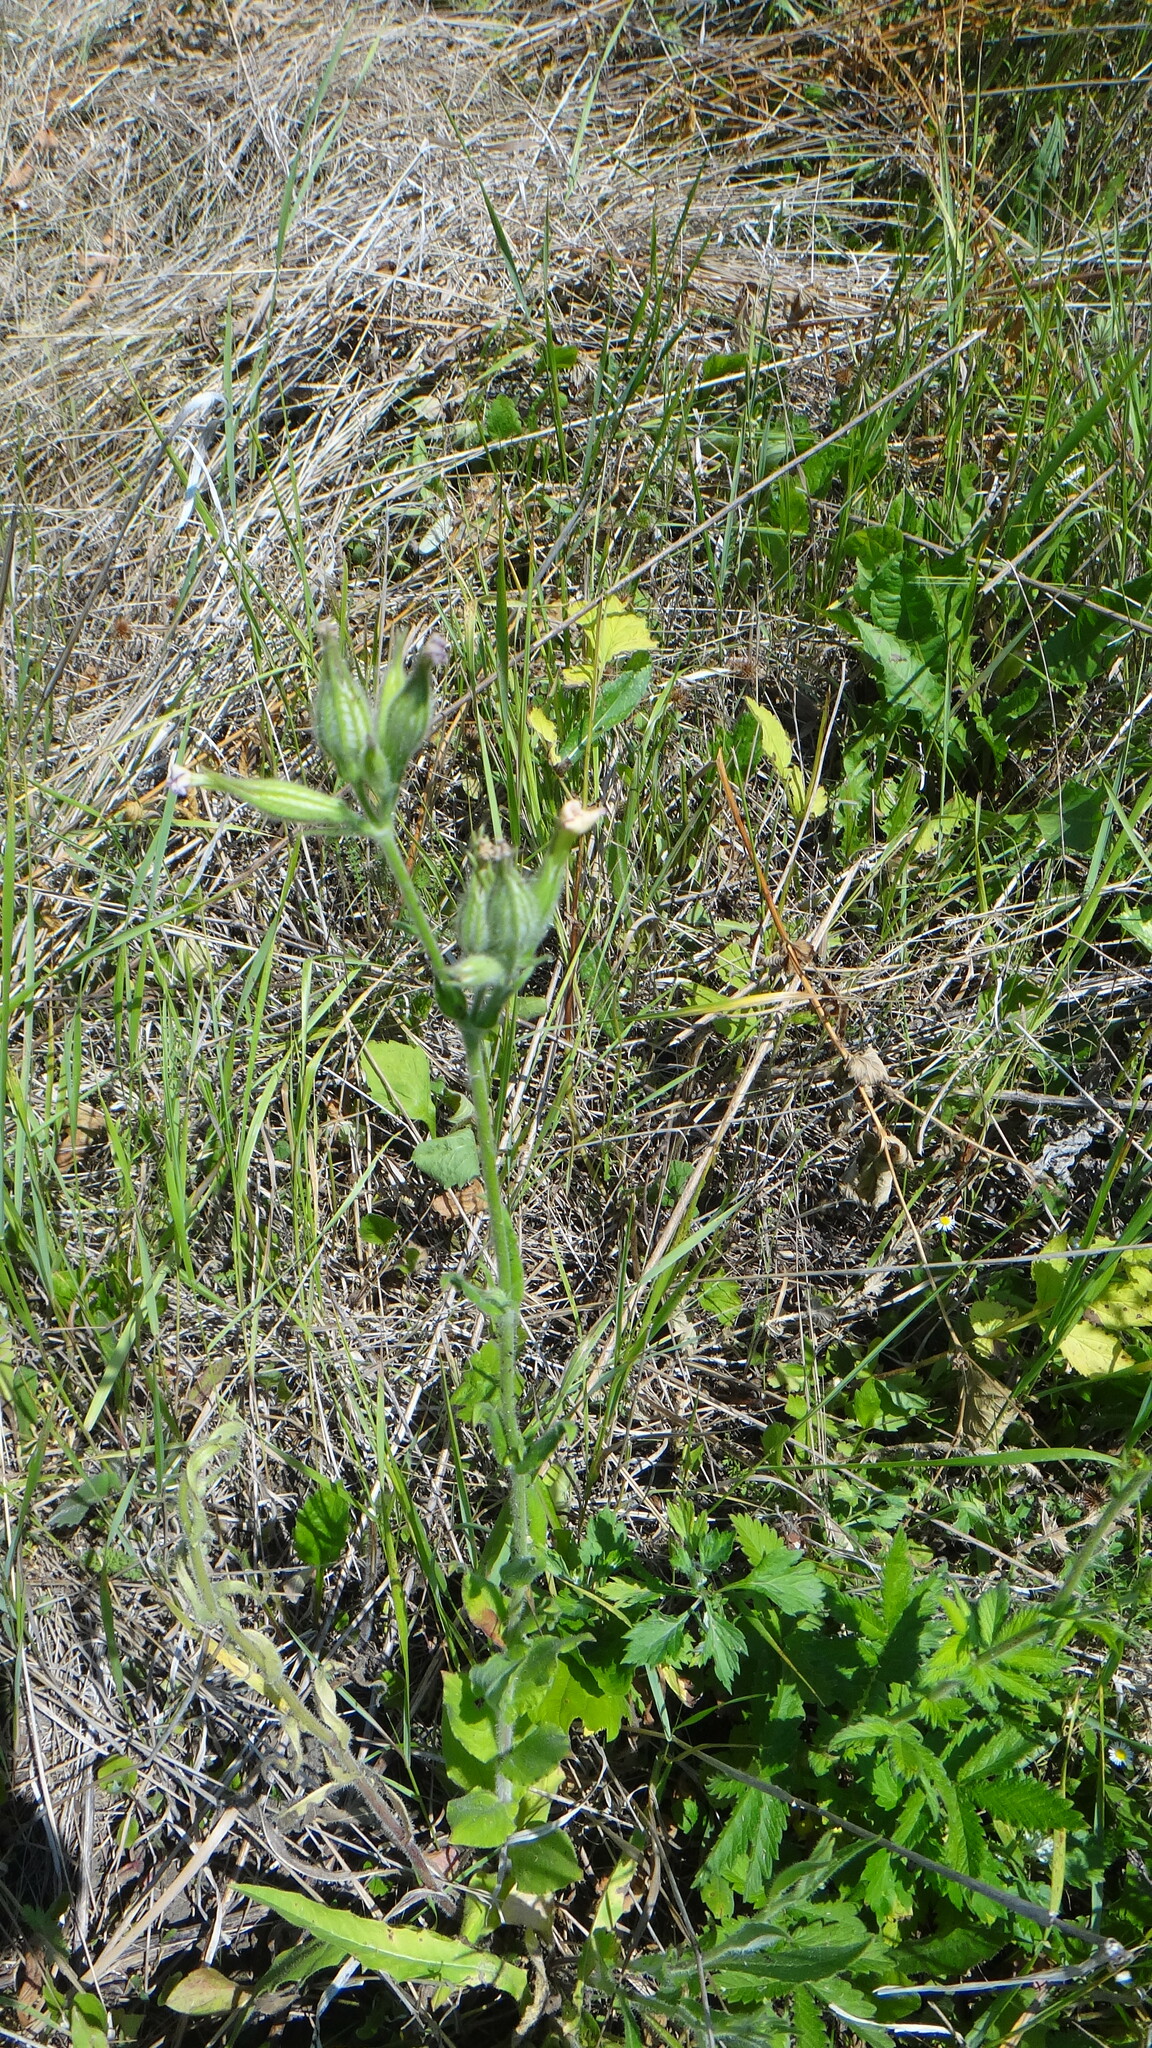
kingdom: Plantae
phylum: Tracheophyta
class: Magnoliopsida
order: Caryophyllales
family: Caryophyllaceae
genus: Silene
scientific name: Silene noctiflora
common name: Night-flowering catchfly
